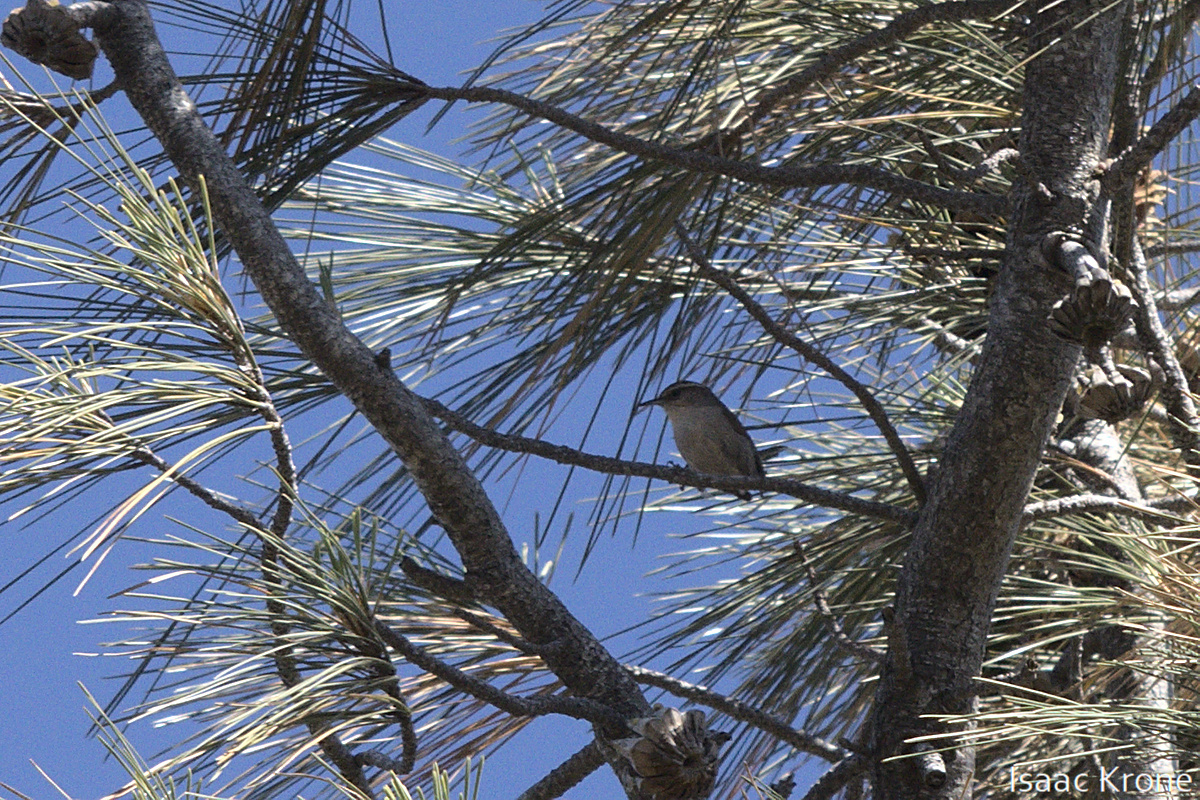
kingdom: Animalia
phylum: Chordata
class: Aves
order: Passeriformes
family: Troglodytidae
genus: Thryomanes
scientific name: Thryomanes bewickii
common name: Bewick's wren
